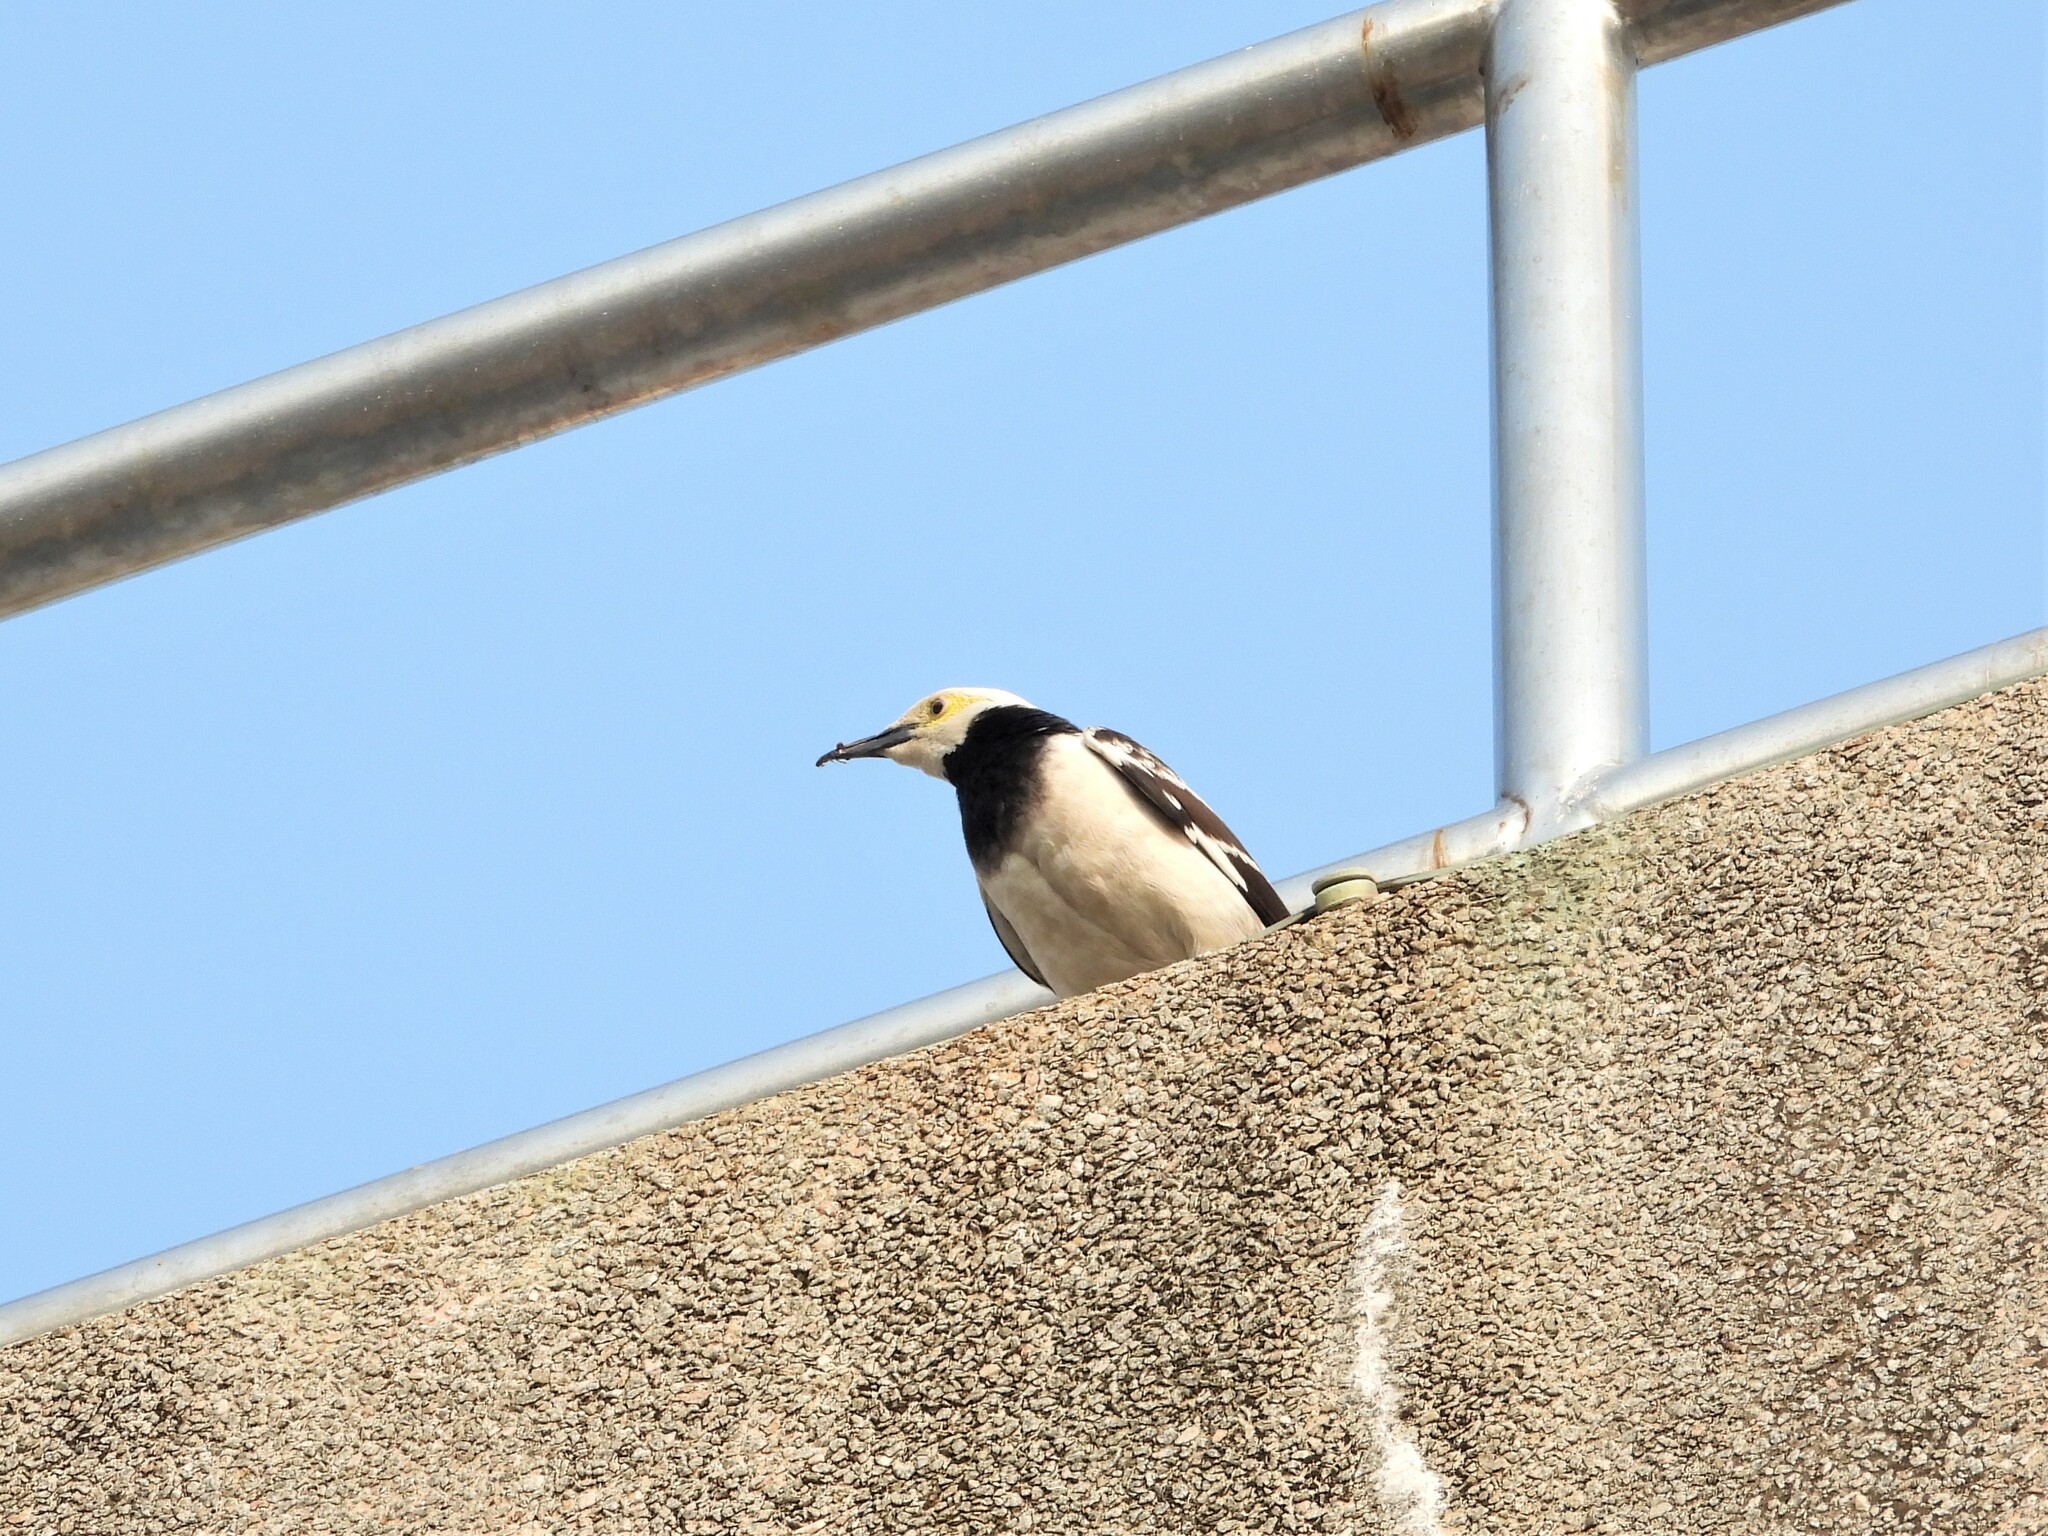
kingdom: Animalia
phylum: Chordata
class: Aves
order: Passeriformes
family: Sturnidae
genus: Gracupica
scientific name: Gracupica nigricollis
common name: Black-collared starling
